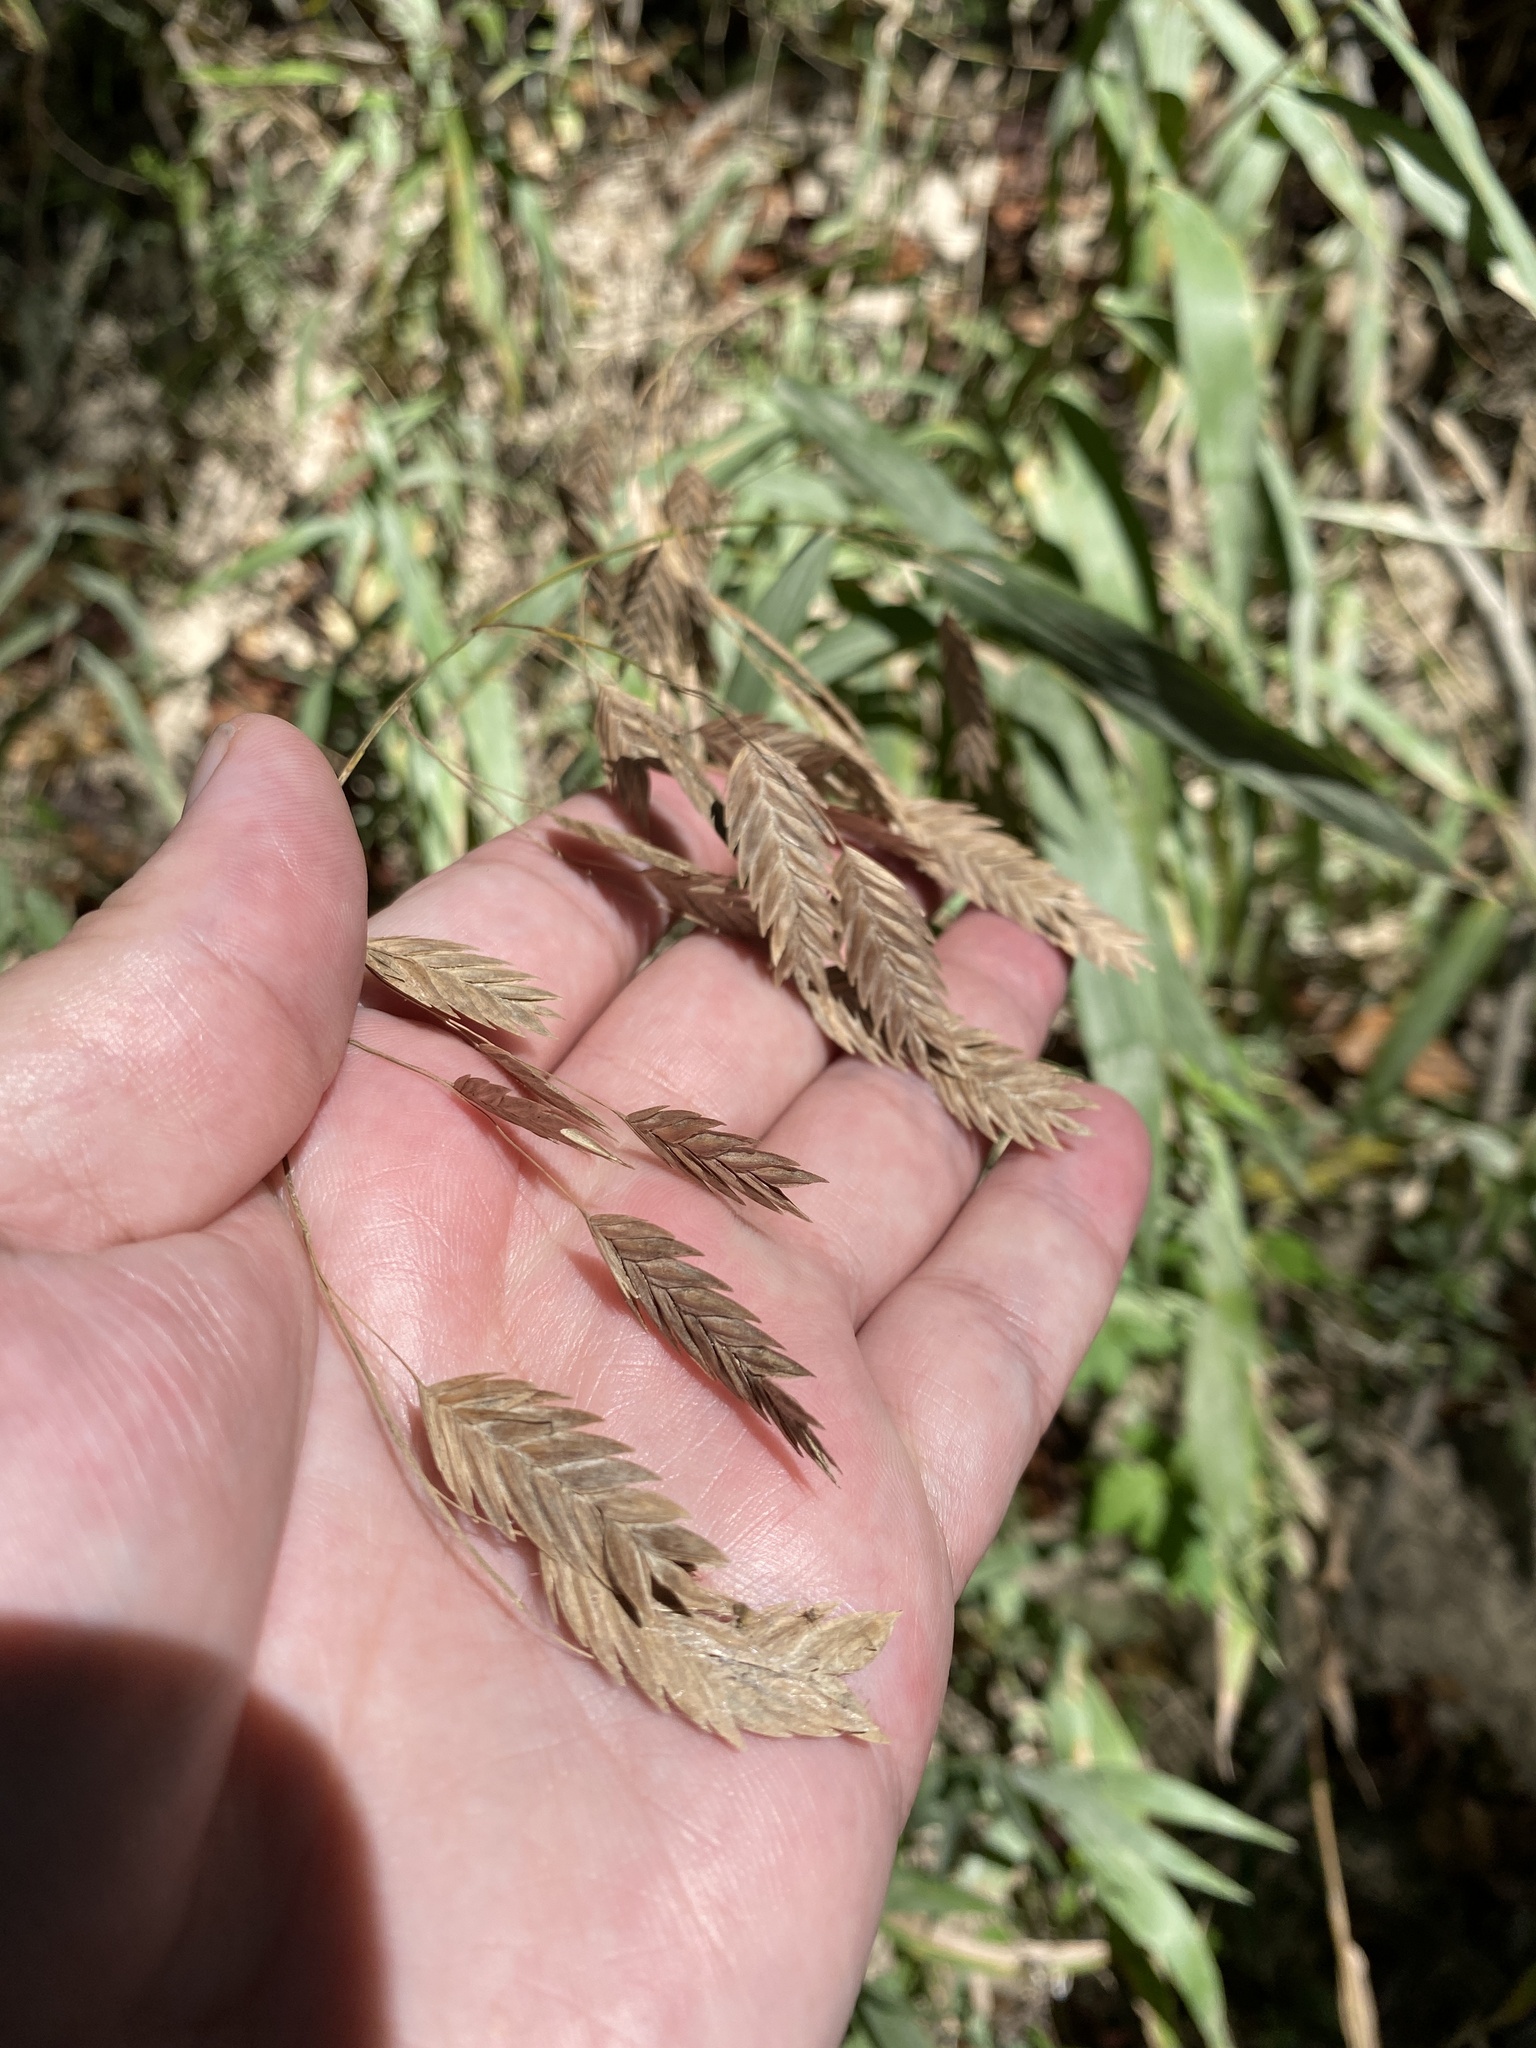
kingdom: Plantae
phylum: Tracheophyta
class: Liliopsida
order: Poales
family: Poaceae
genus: Chasmanthium
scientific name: Chasmanthium latifolium
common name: Broad-leaved chasmanthium
